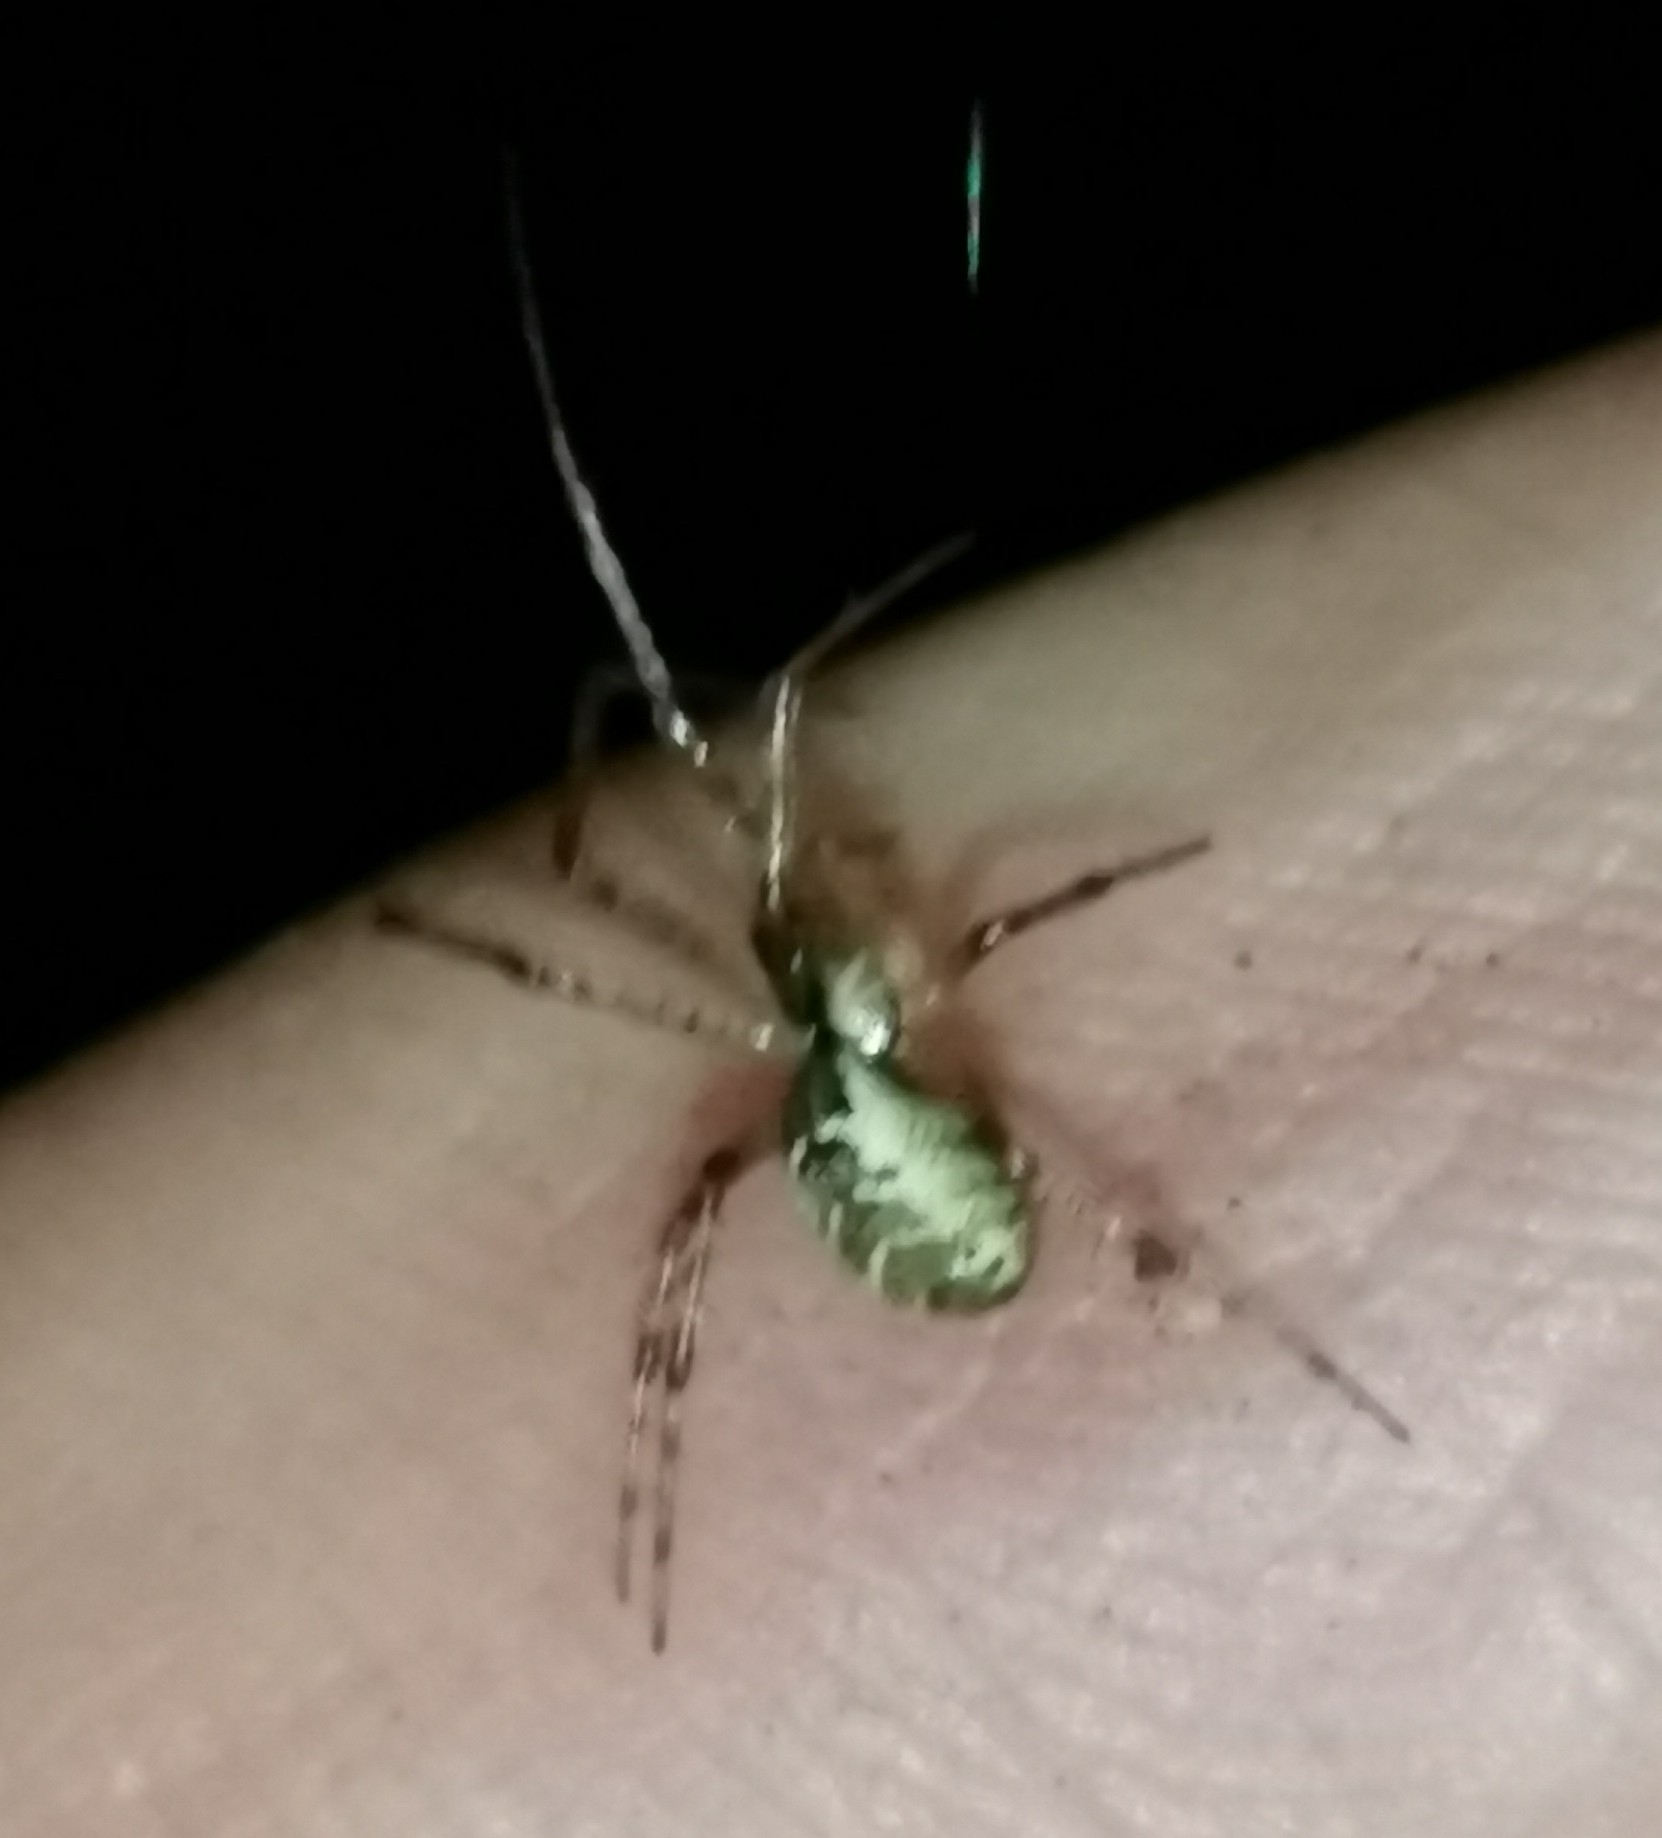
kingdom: Animalia
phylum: Arthropoda
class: Arachnida
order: Araneae
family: Linyphiidae
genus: Pityohyphantes
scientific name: Pityohyphantes phrygianus
